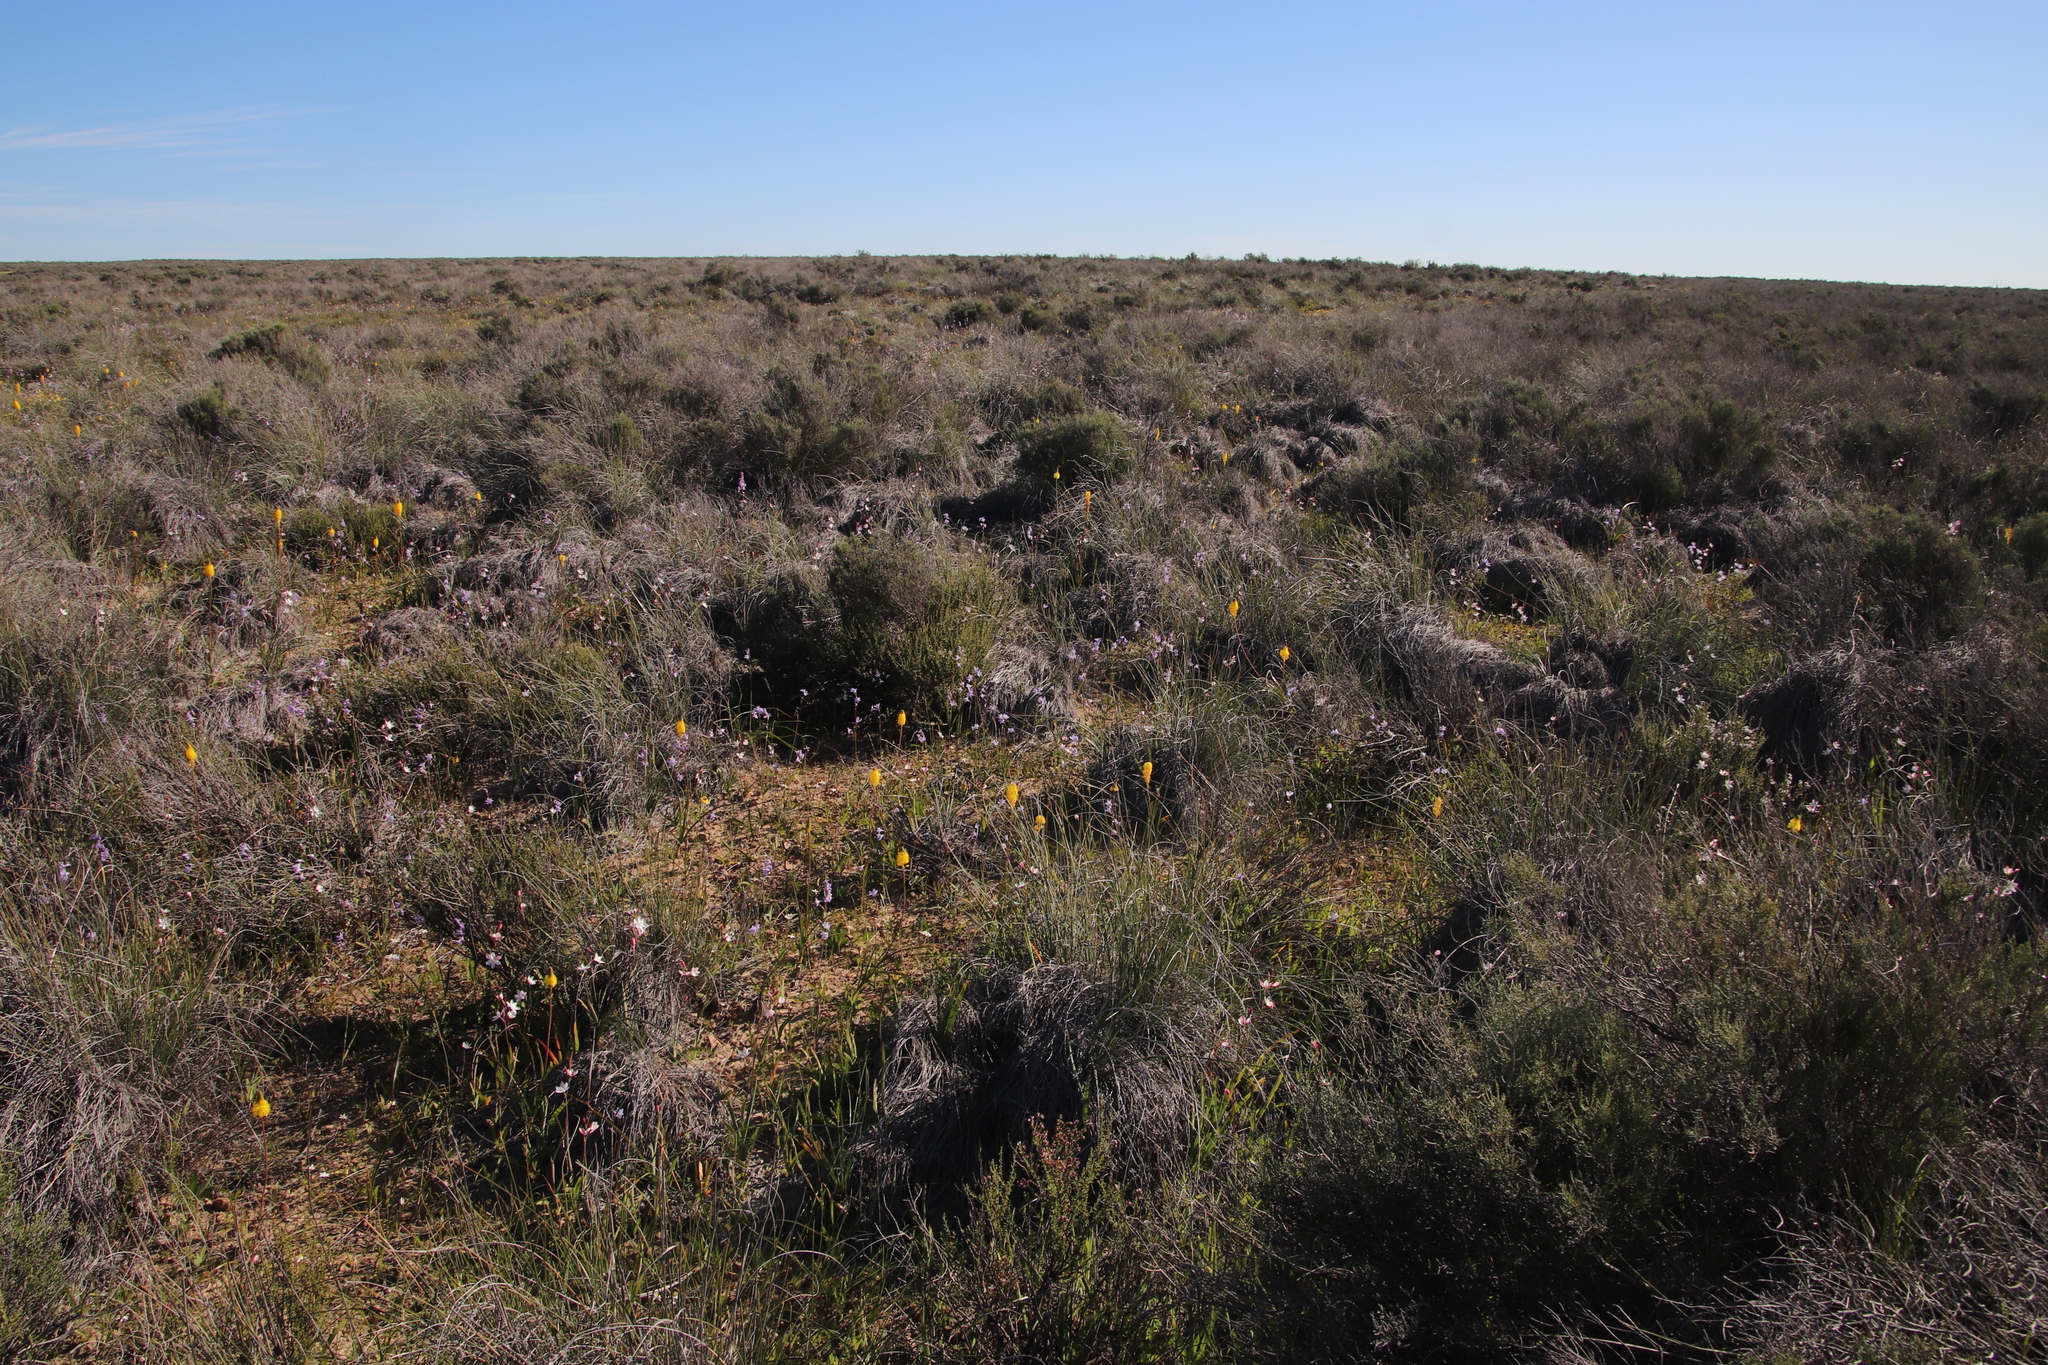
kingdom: Plantae
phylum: Tracheophyta
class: Liliopsida
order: Asparagales
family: Iridaceae
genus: Hesperantha
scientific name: Hesperantha cucullata
